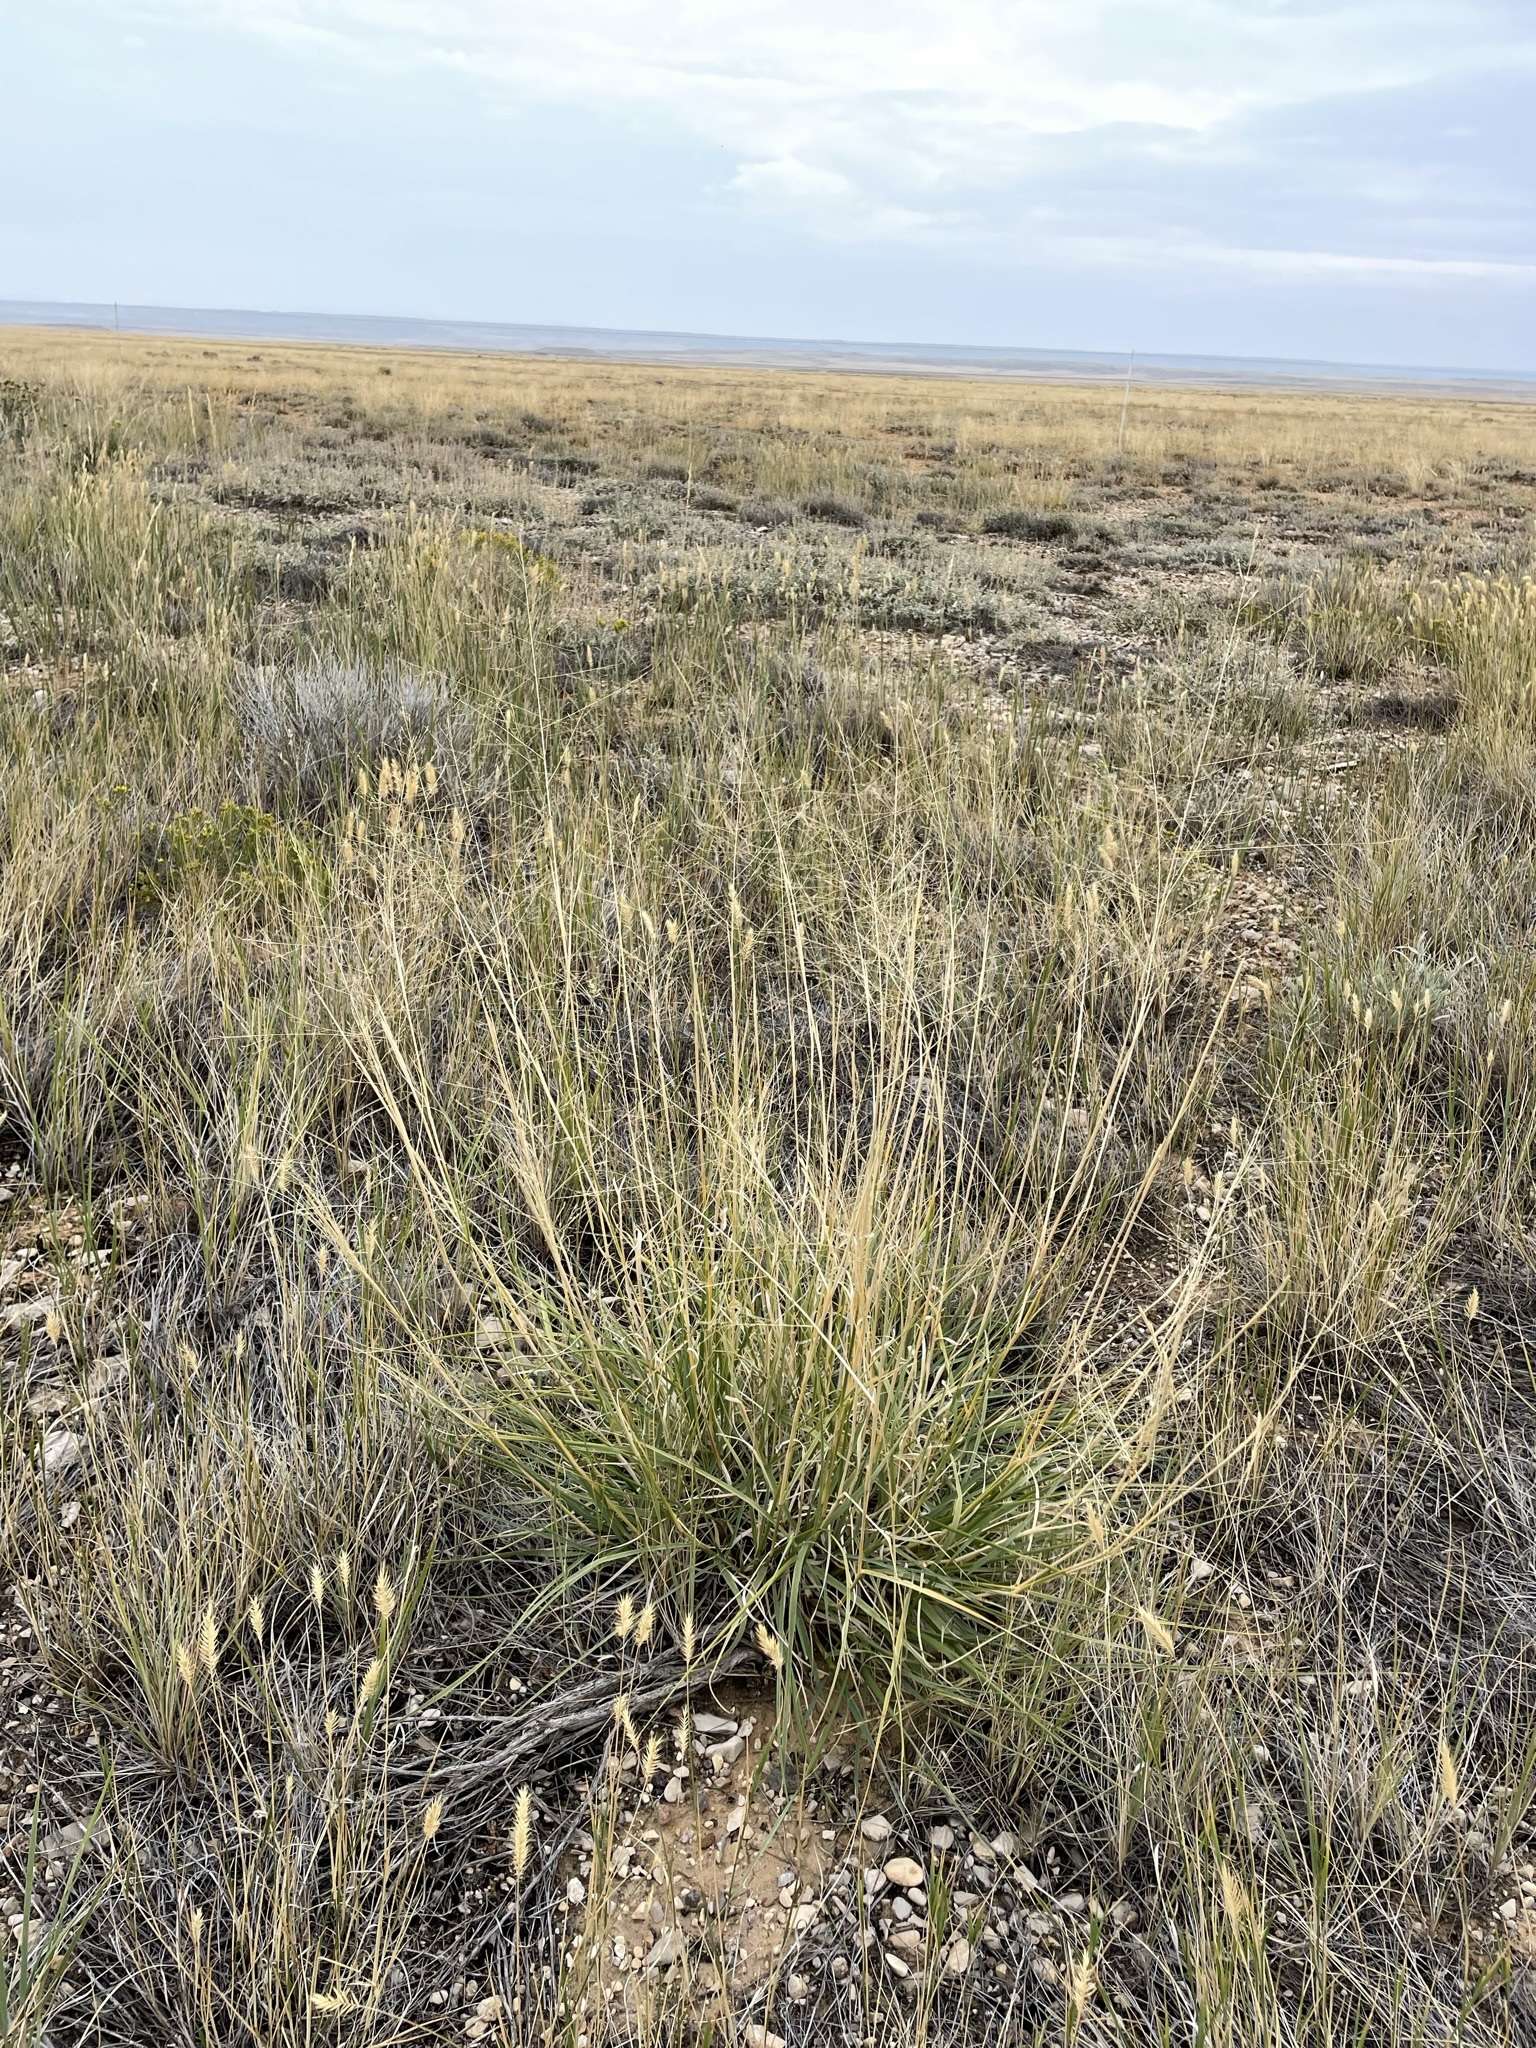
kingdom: Plantae
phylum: Tracheophyta
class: Liliopsida
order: Poales
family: Poaceae
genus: Sporobolus
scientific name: Sporobolus airoides
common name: Alkali sacaton
